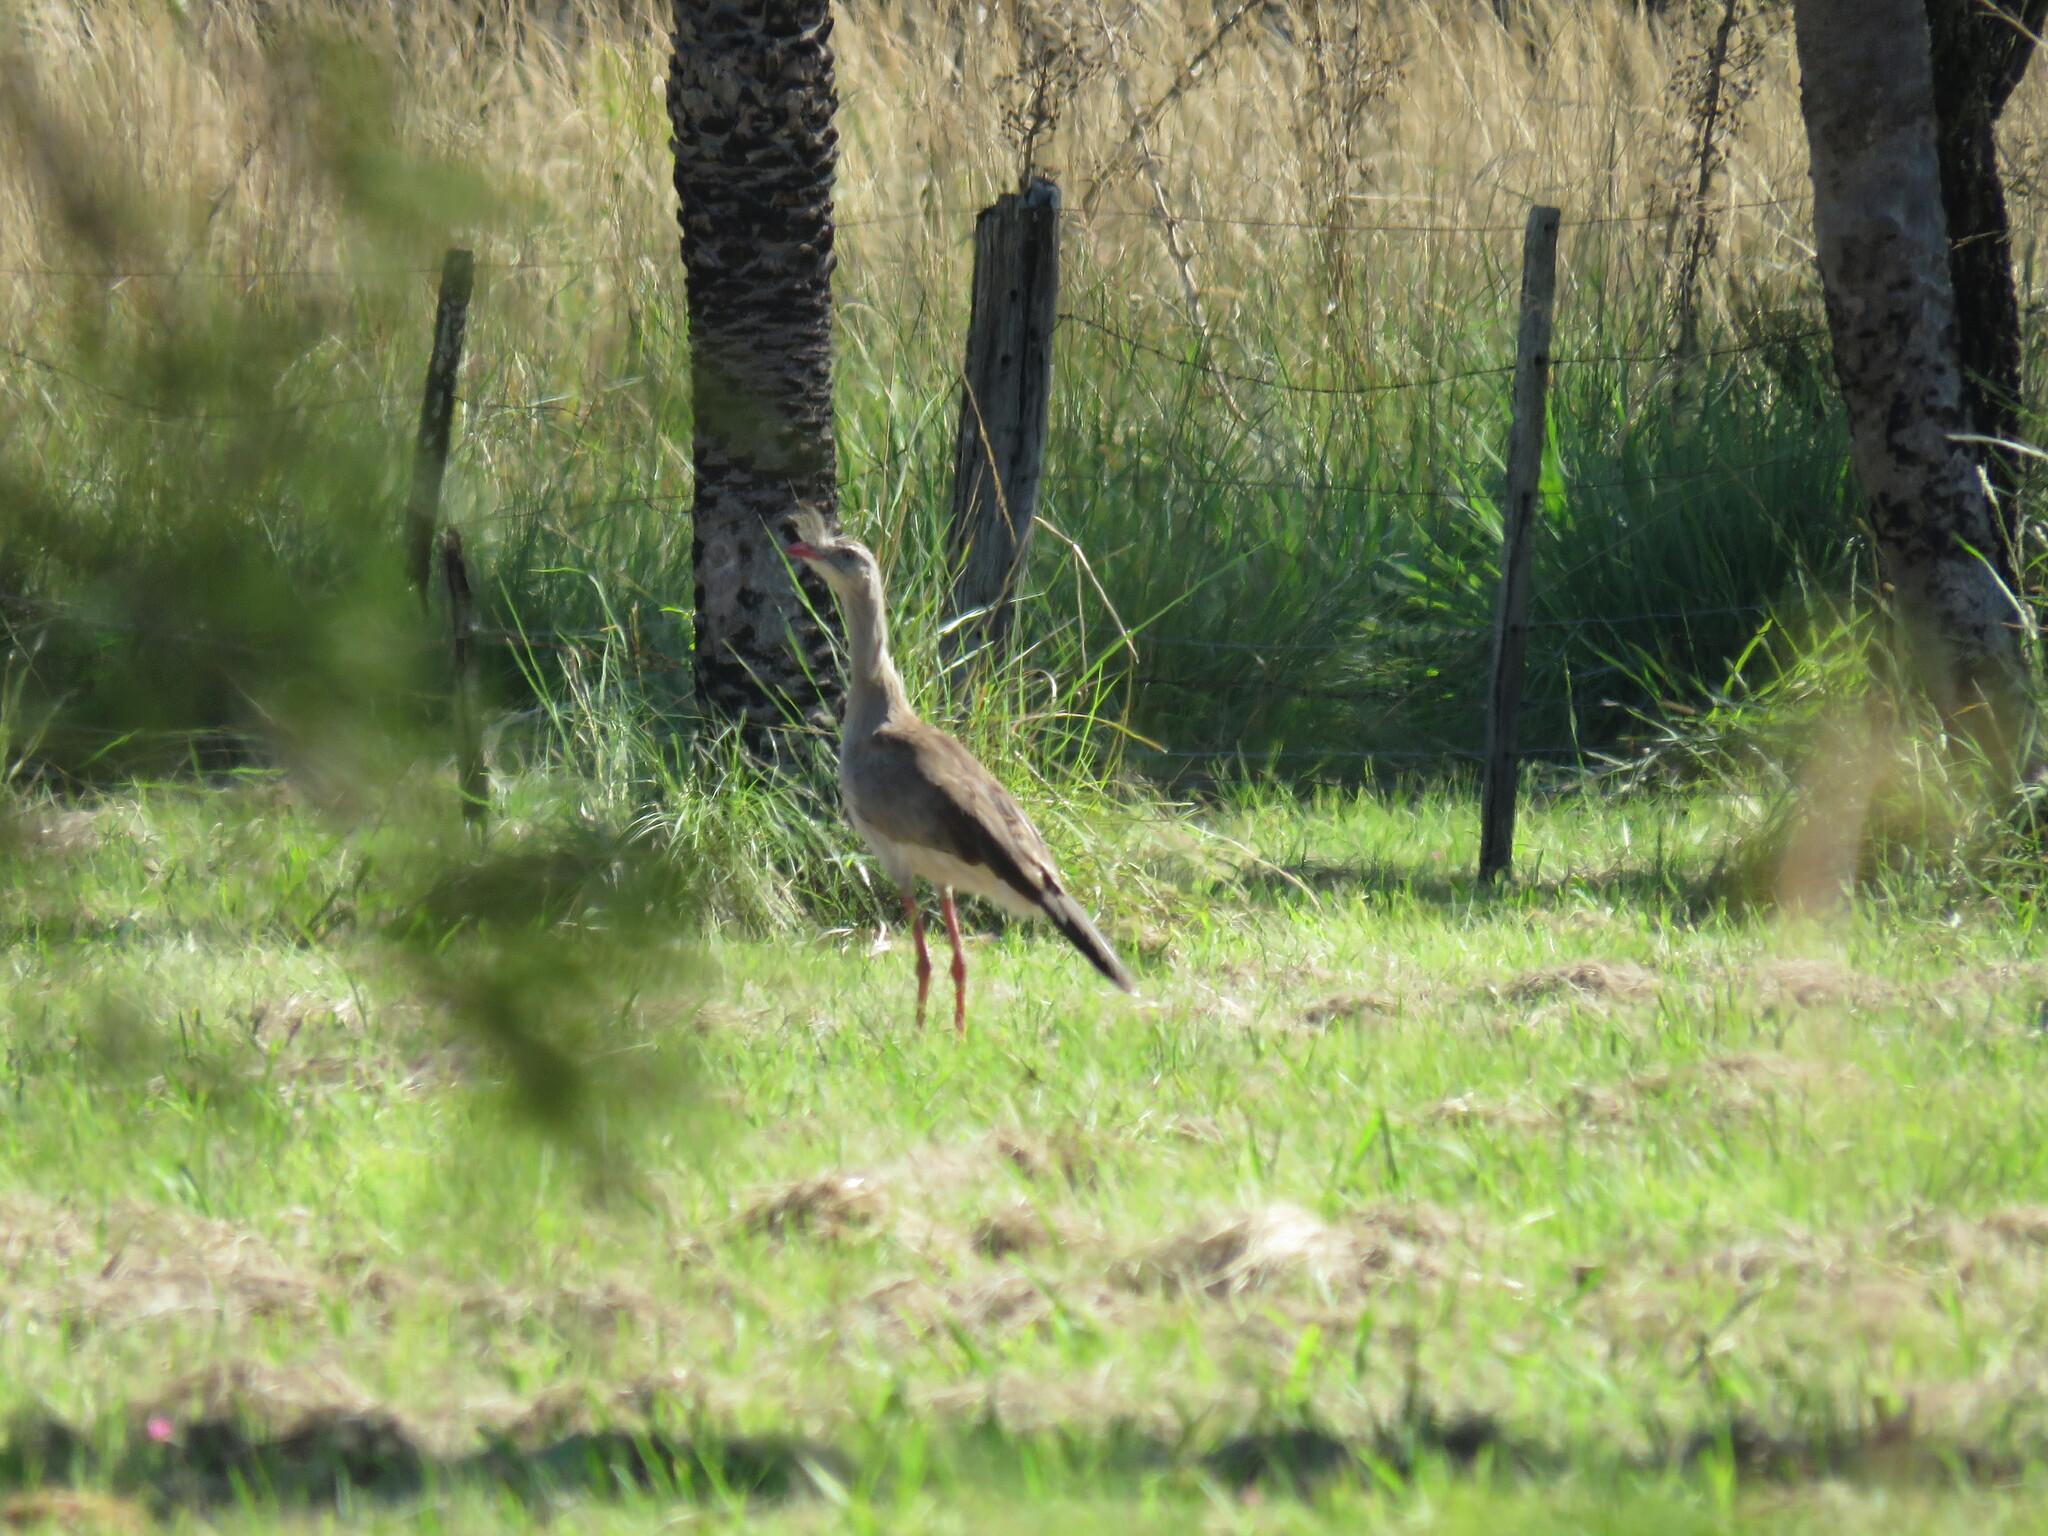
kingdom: Animalia
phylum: Chordata
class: Aves
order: Cariamiformes
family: Cariamidae
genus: Cariama
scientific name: Cariama cristata
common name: Red-legged seriema
